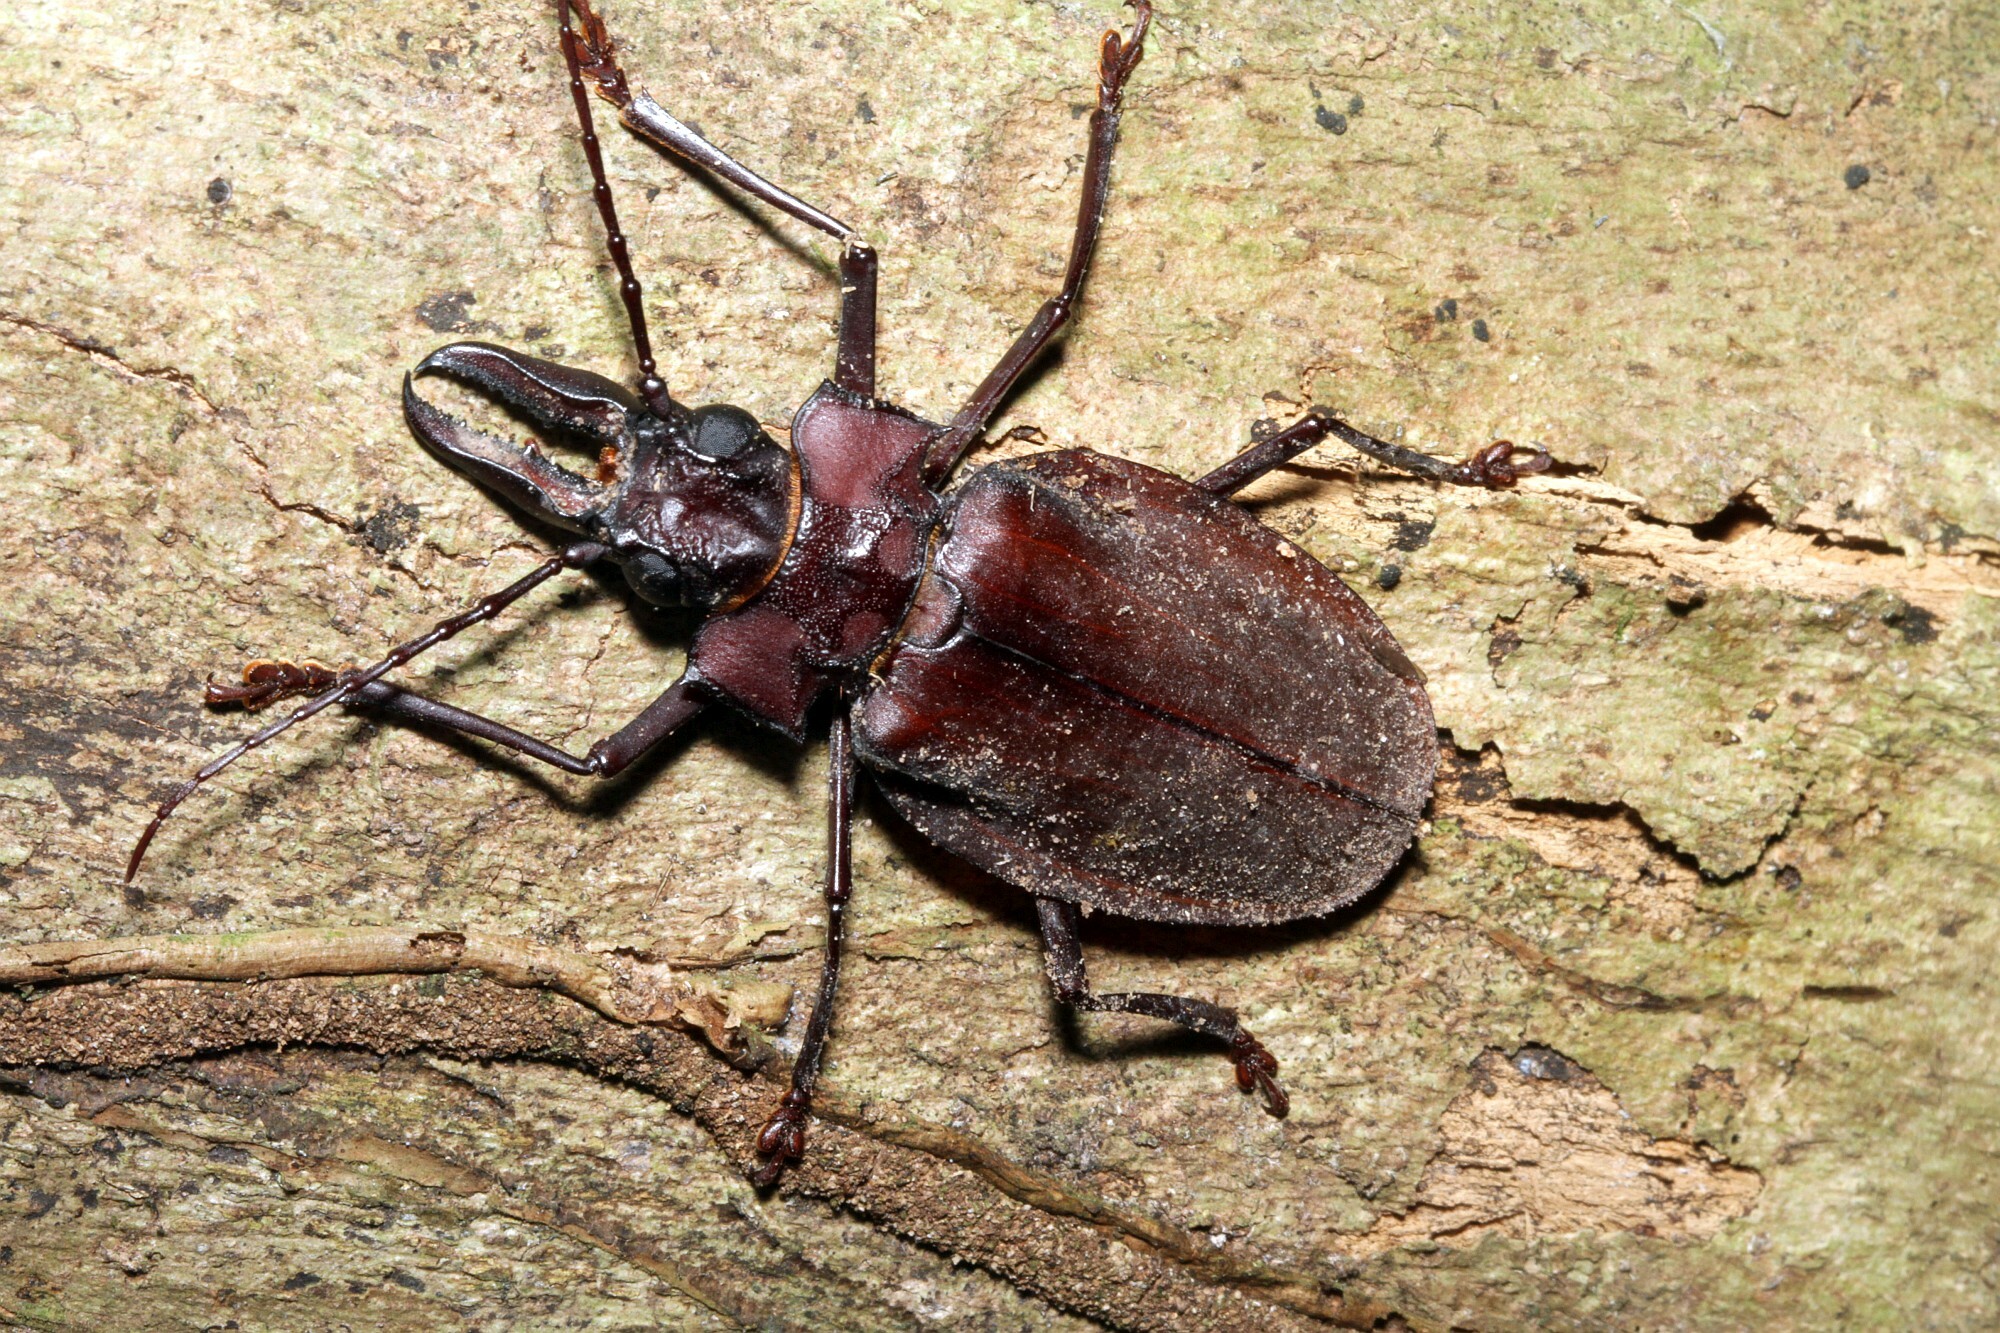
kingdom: Animalia
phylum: Arthropoda
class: Insecta
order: Coleoptera
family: Cerambycidae
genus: Macrodontia
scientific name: Macrodontia crenata
